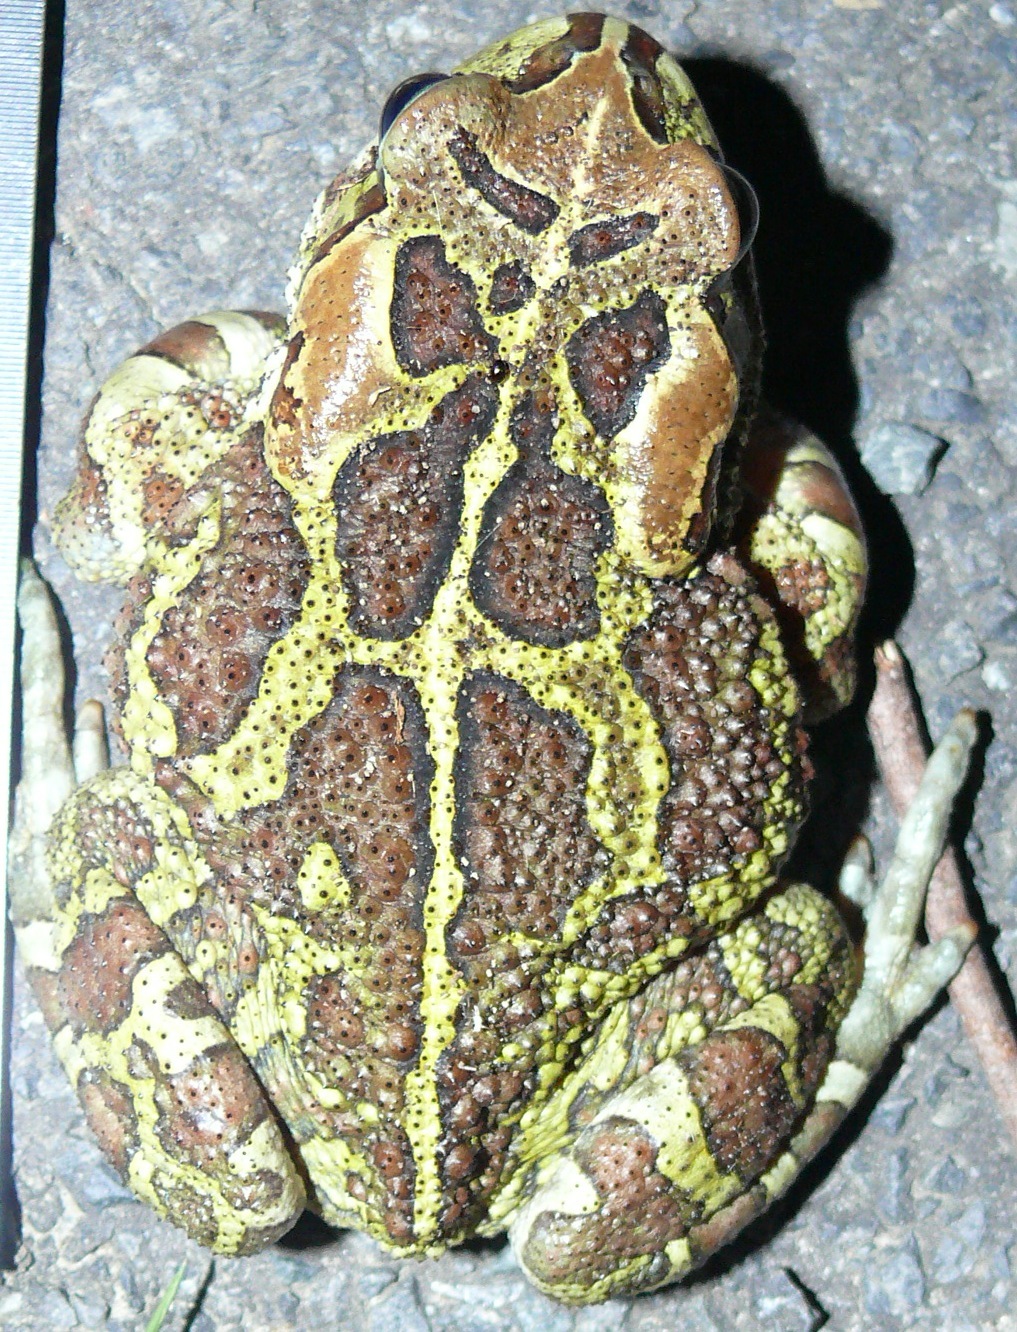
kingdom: Animalia
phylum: Chordata
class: Amphibia
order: Anura
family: Bufonidae
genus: Sclerophrys
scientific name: Sclerophrys pantherina
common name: Panther toad
